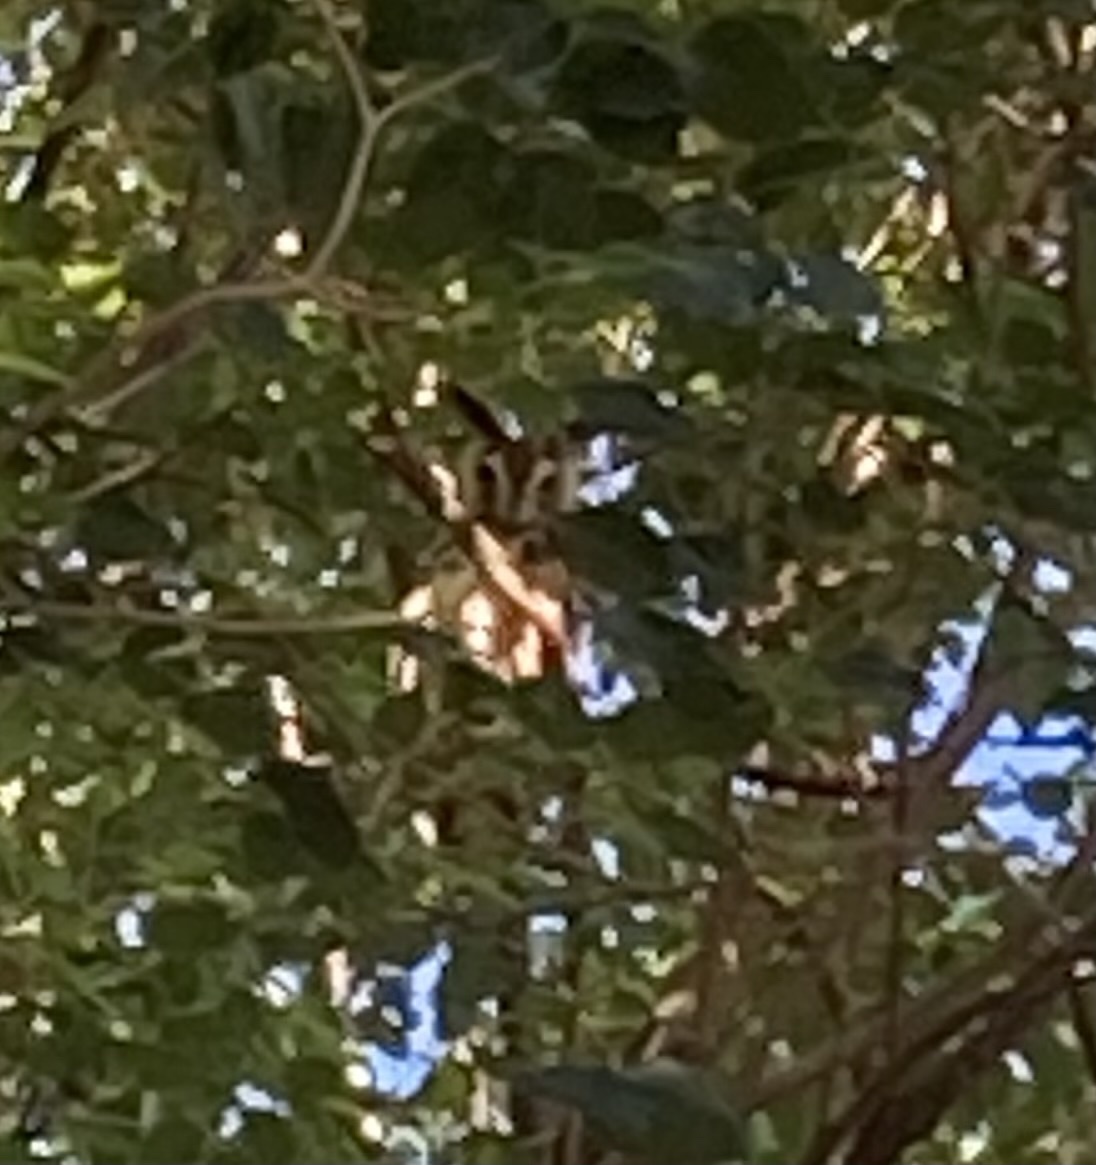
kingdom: Animalia
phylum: Chordata
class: Aves
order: Strigiformes
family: Strigidae
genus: Pseudoscops
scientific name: Pseudoscops clamator
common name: Striped owl
